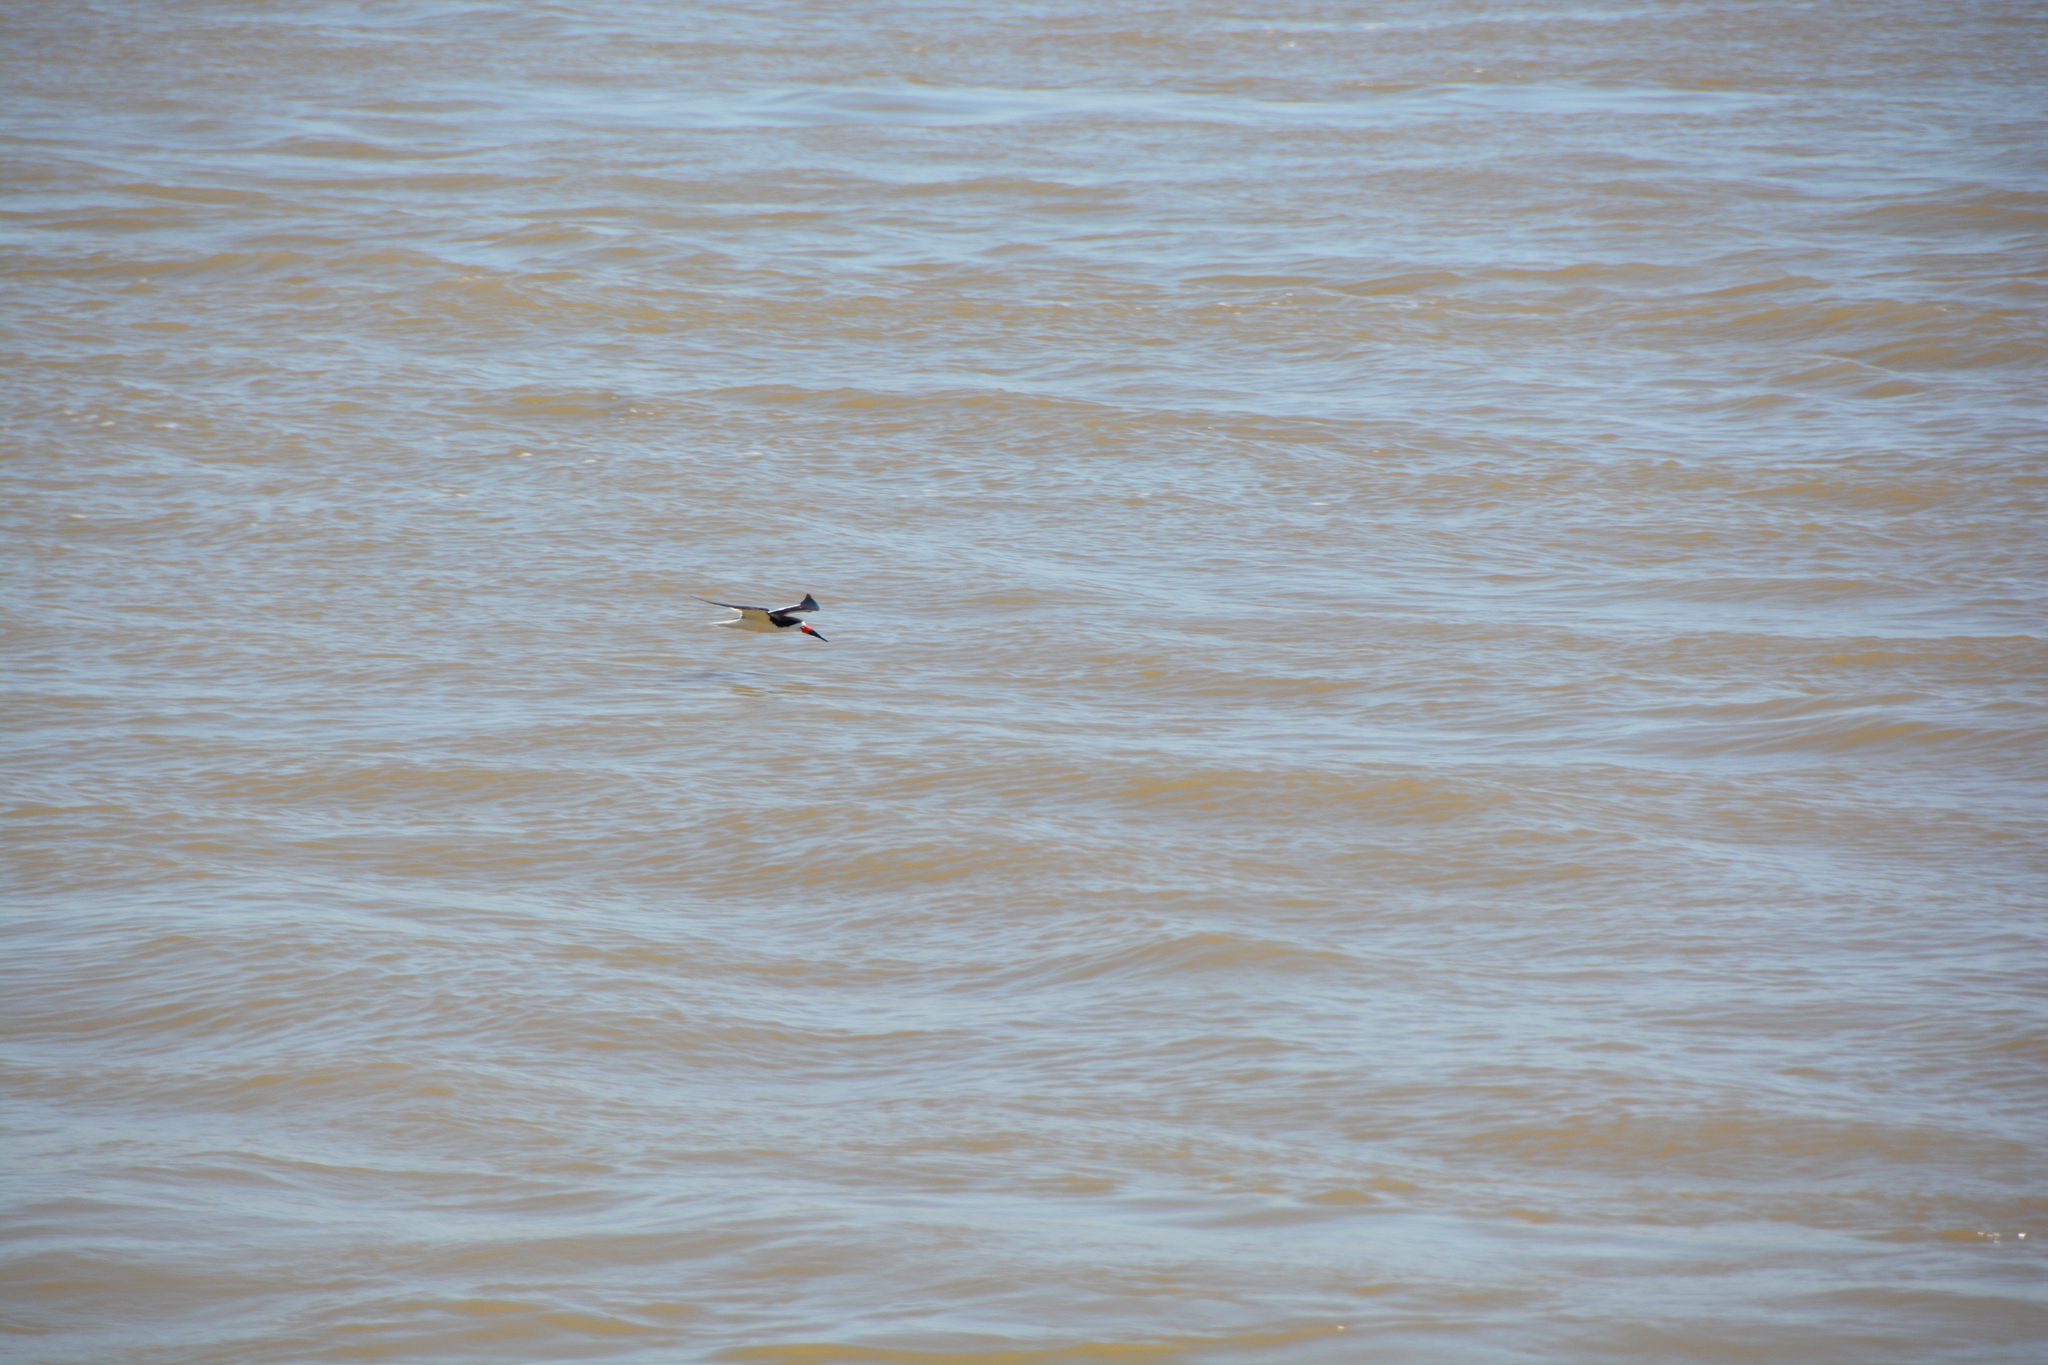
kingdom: Animalia
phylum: Chordata
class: Aves
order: Charadriiformes
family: Laridae
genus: Rynchops
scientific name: Rynchops niger
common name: Black skimmer
